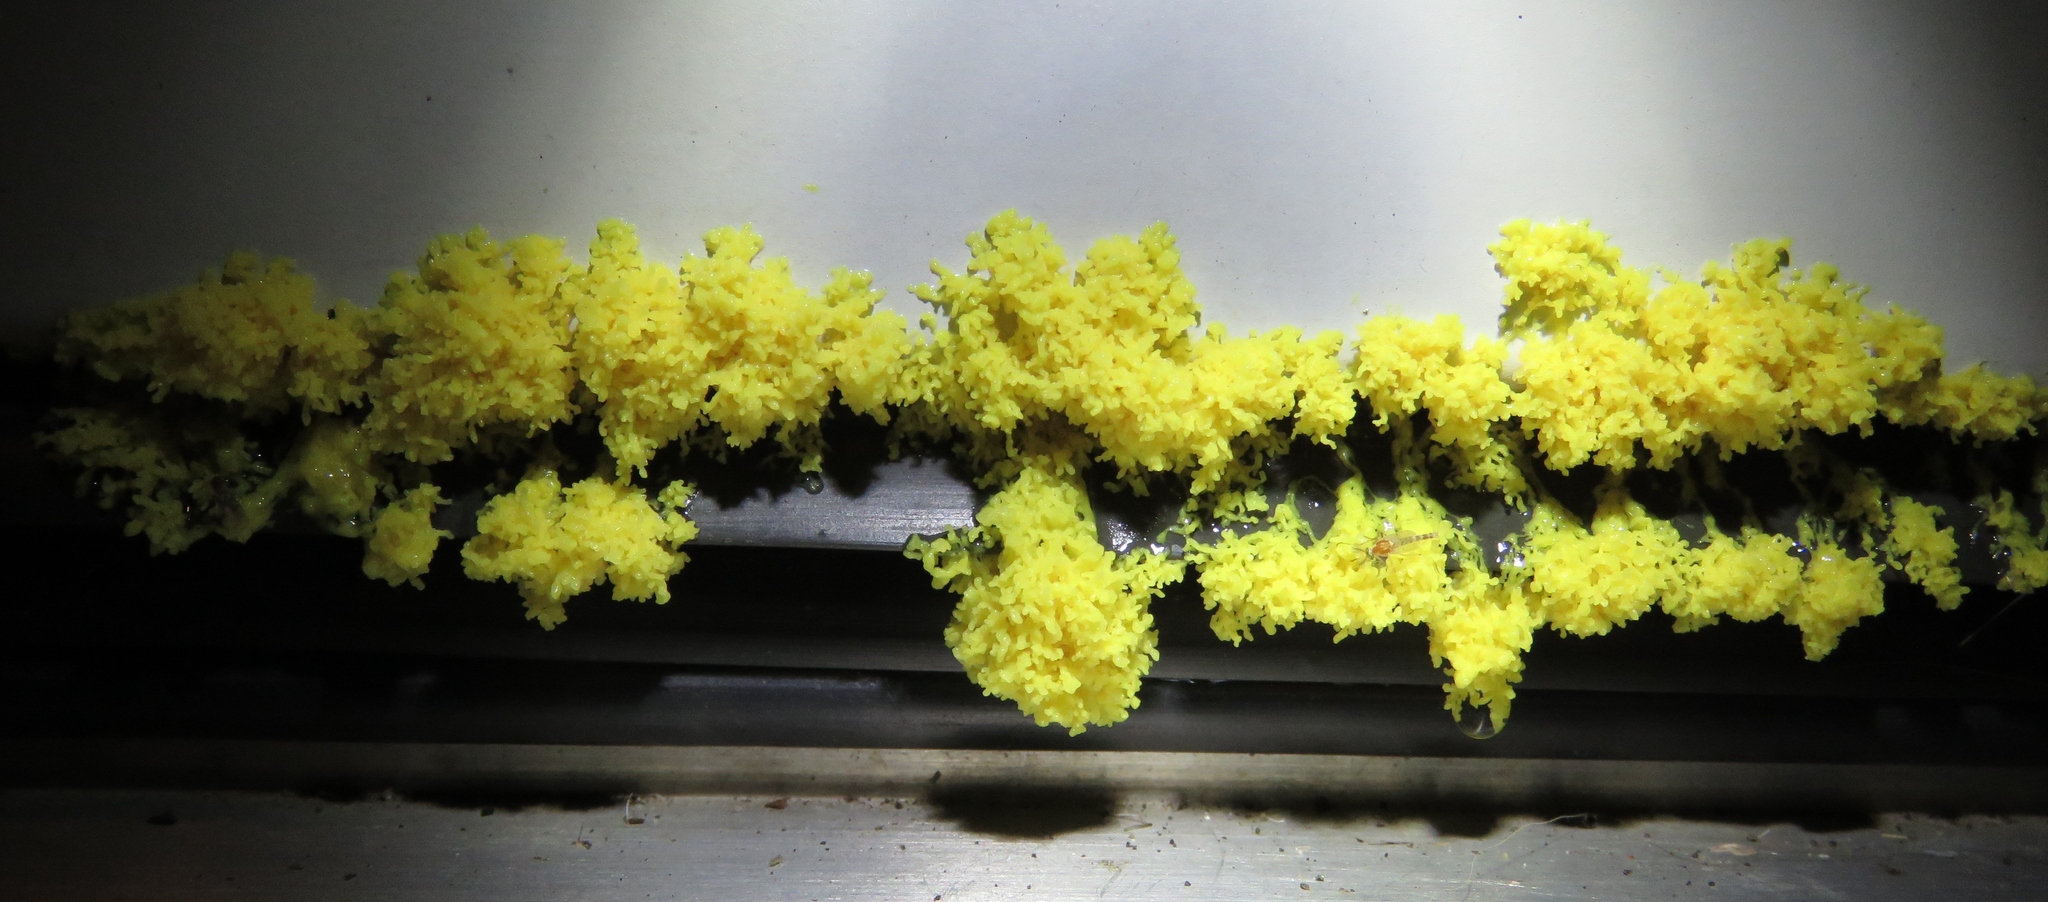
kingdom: Protozoa
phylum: Mycetozoa
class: Myxomycetes
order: Physarales
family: Physaraceae
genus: Fuligo
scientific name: Fuligo septica
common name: Dog vomit slime mold
